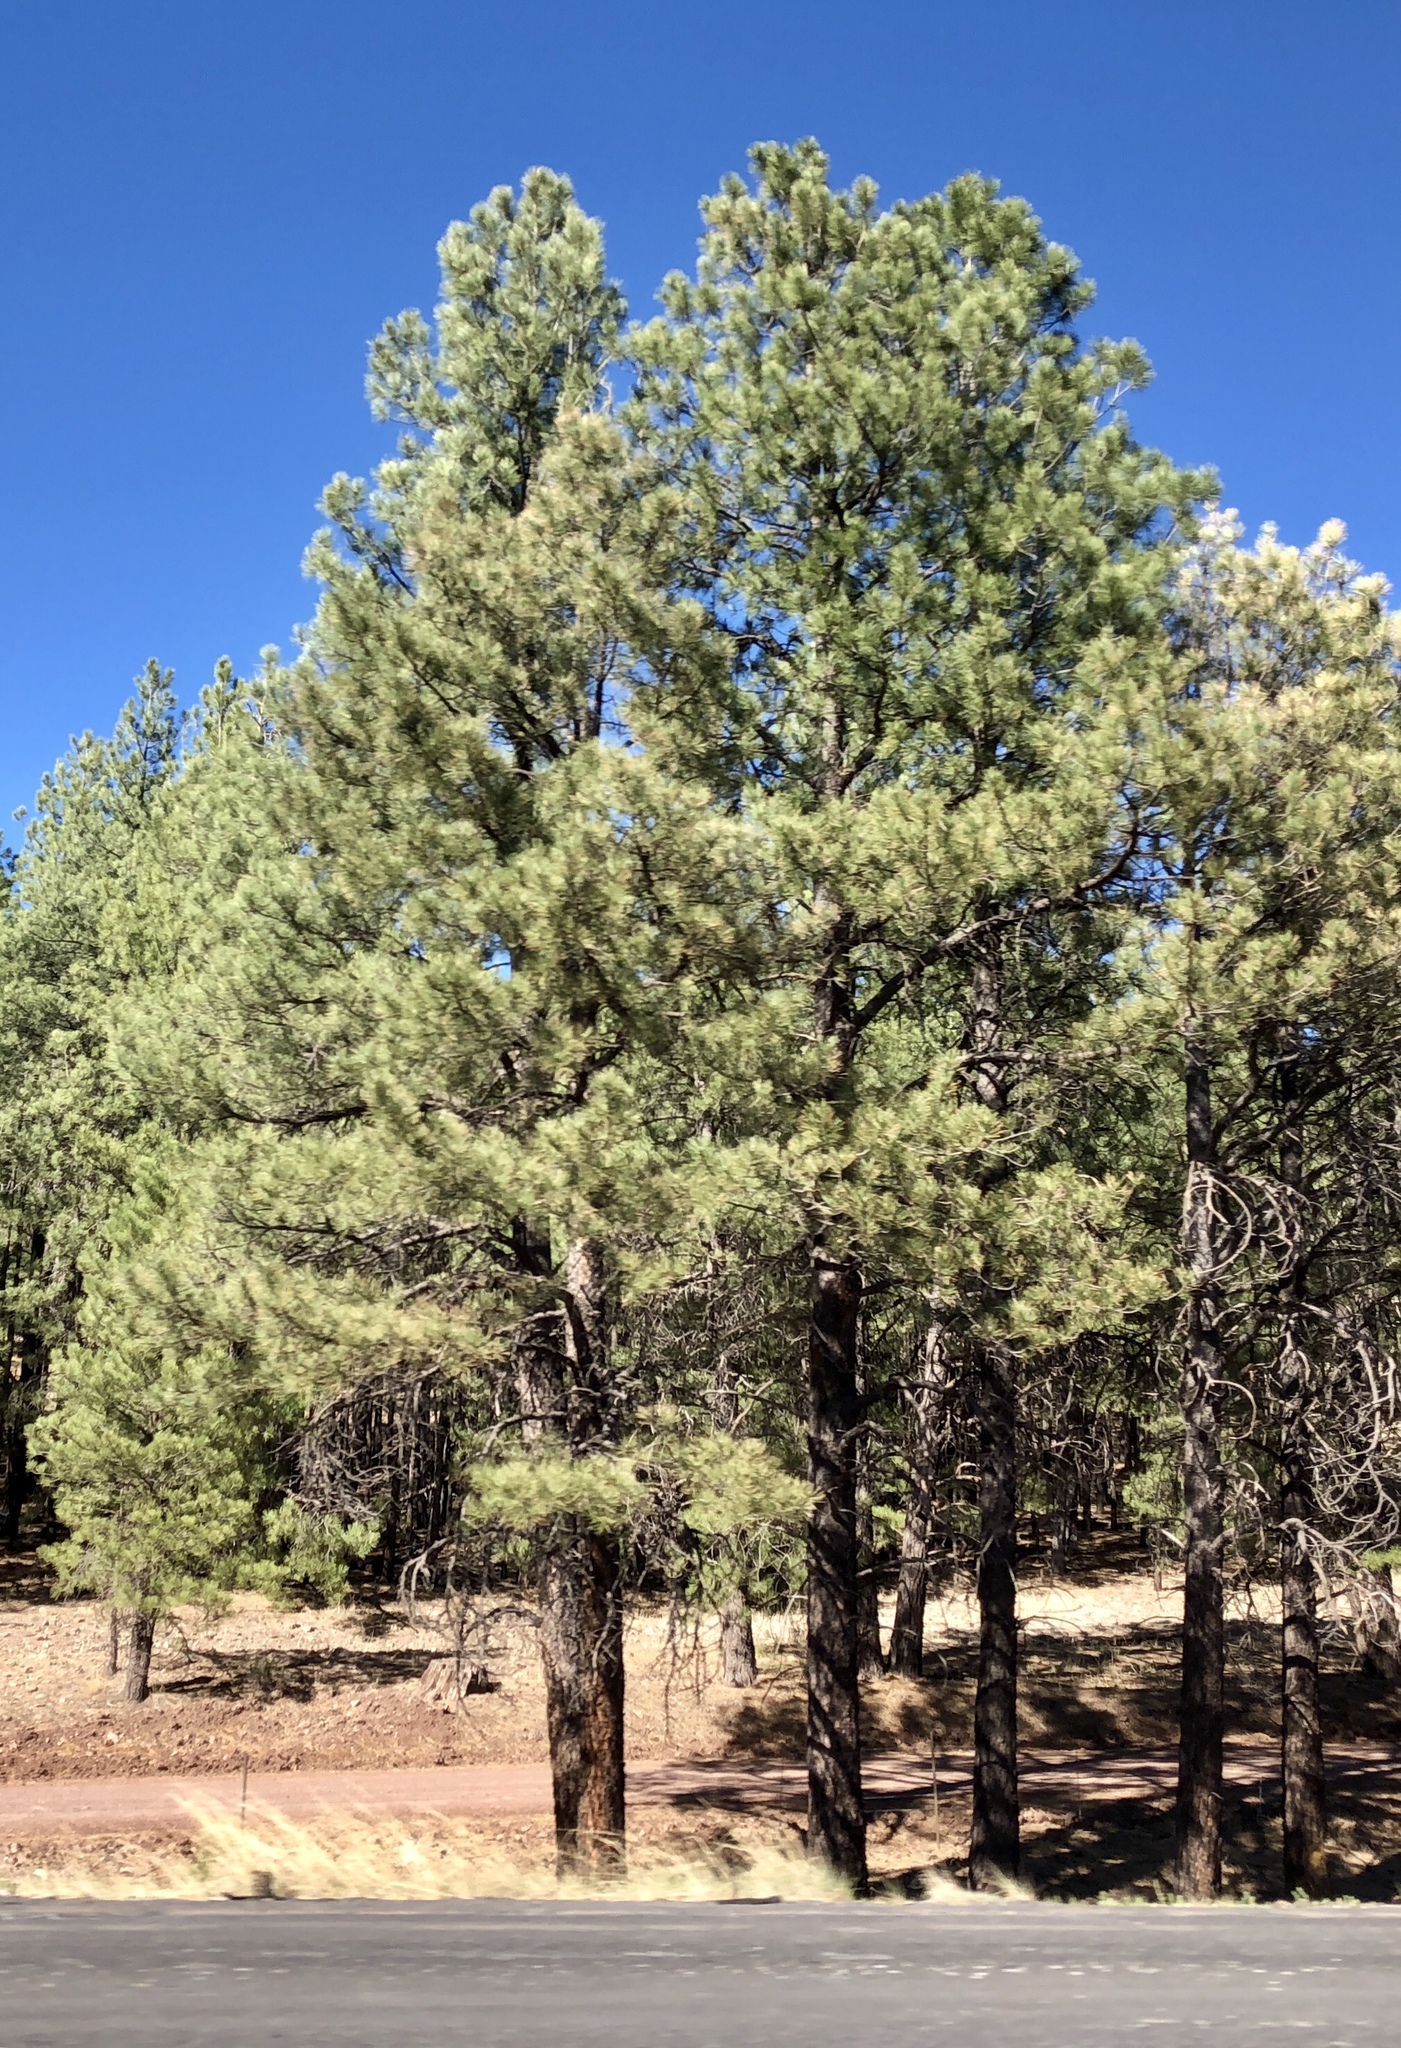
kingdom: Plantae
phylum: Tracheophyta
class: Pinopsida
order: Pinales
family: Pinaceae
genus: Pinus
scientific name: Pinus ponderosa
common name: Western yellow-pine
